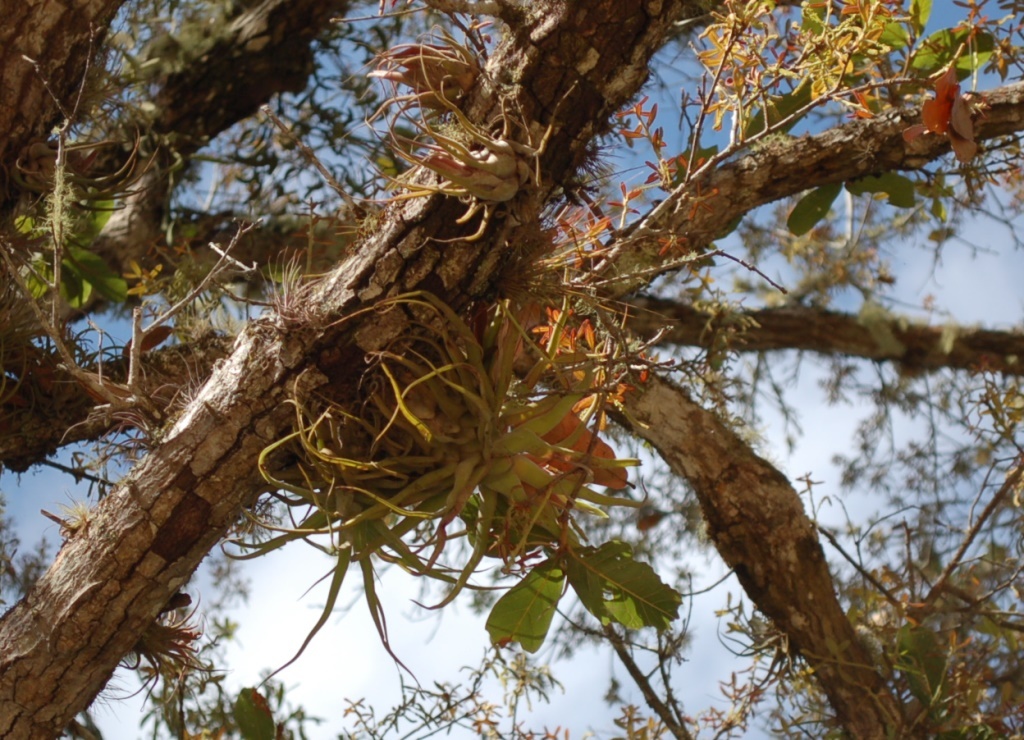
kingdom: Plantae
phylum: Tracheophyta
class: Liliopsida
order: Poales
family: Bromeliaceae
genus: Tillandsia
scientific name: Tillandsia streptophylla
